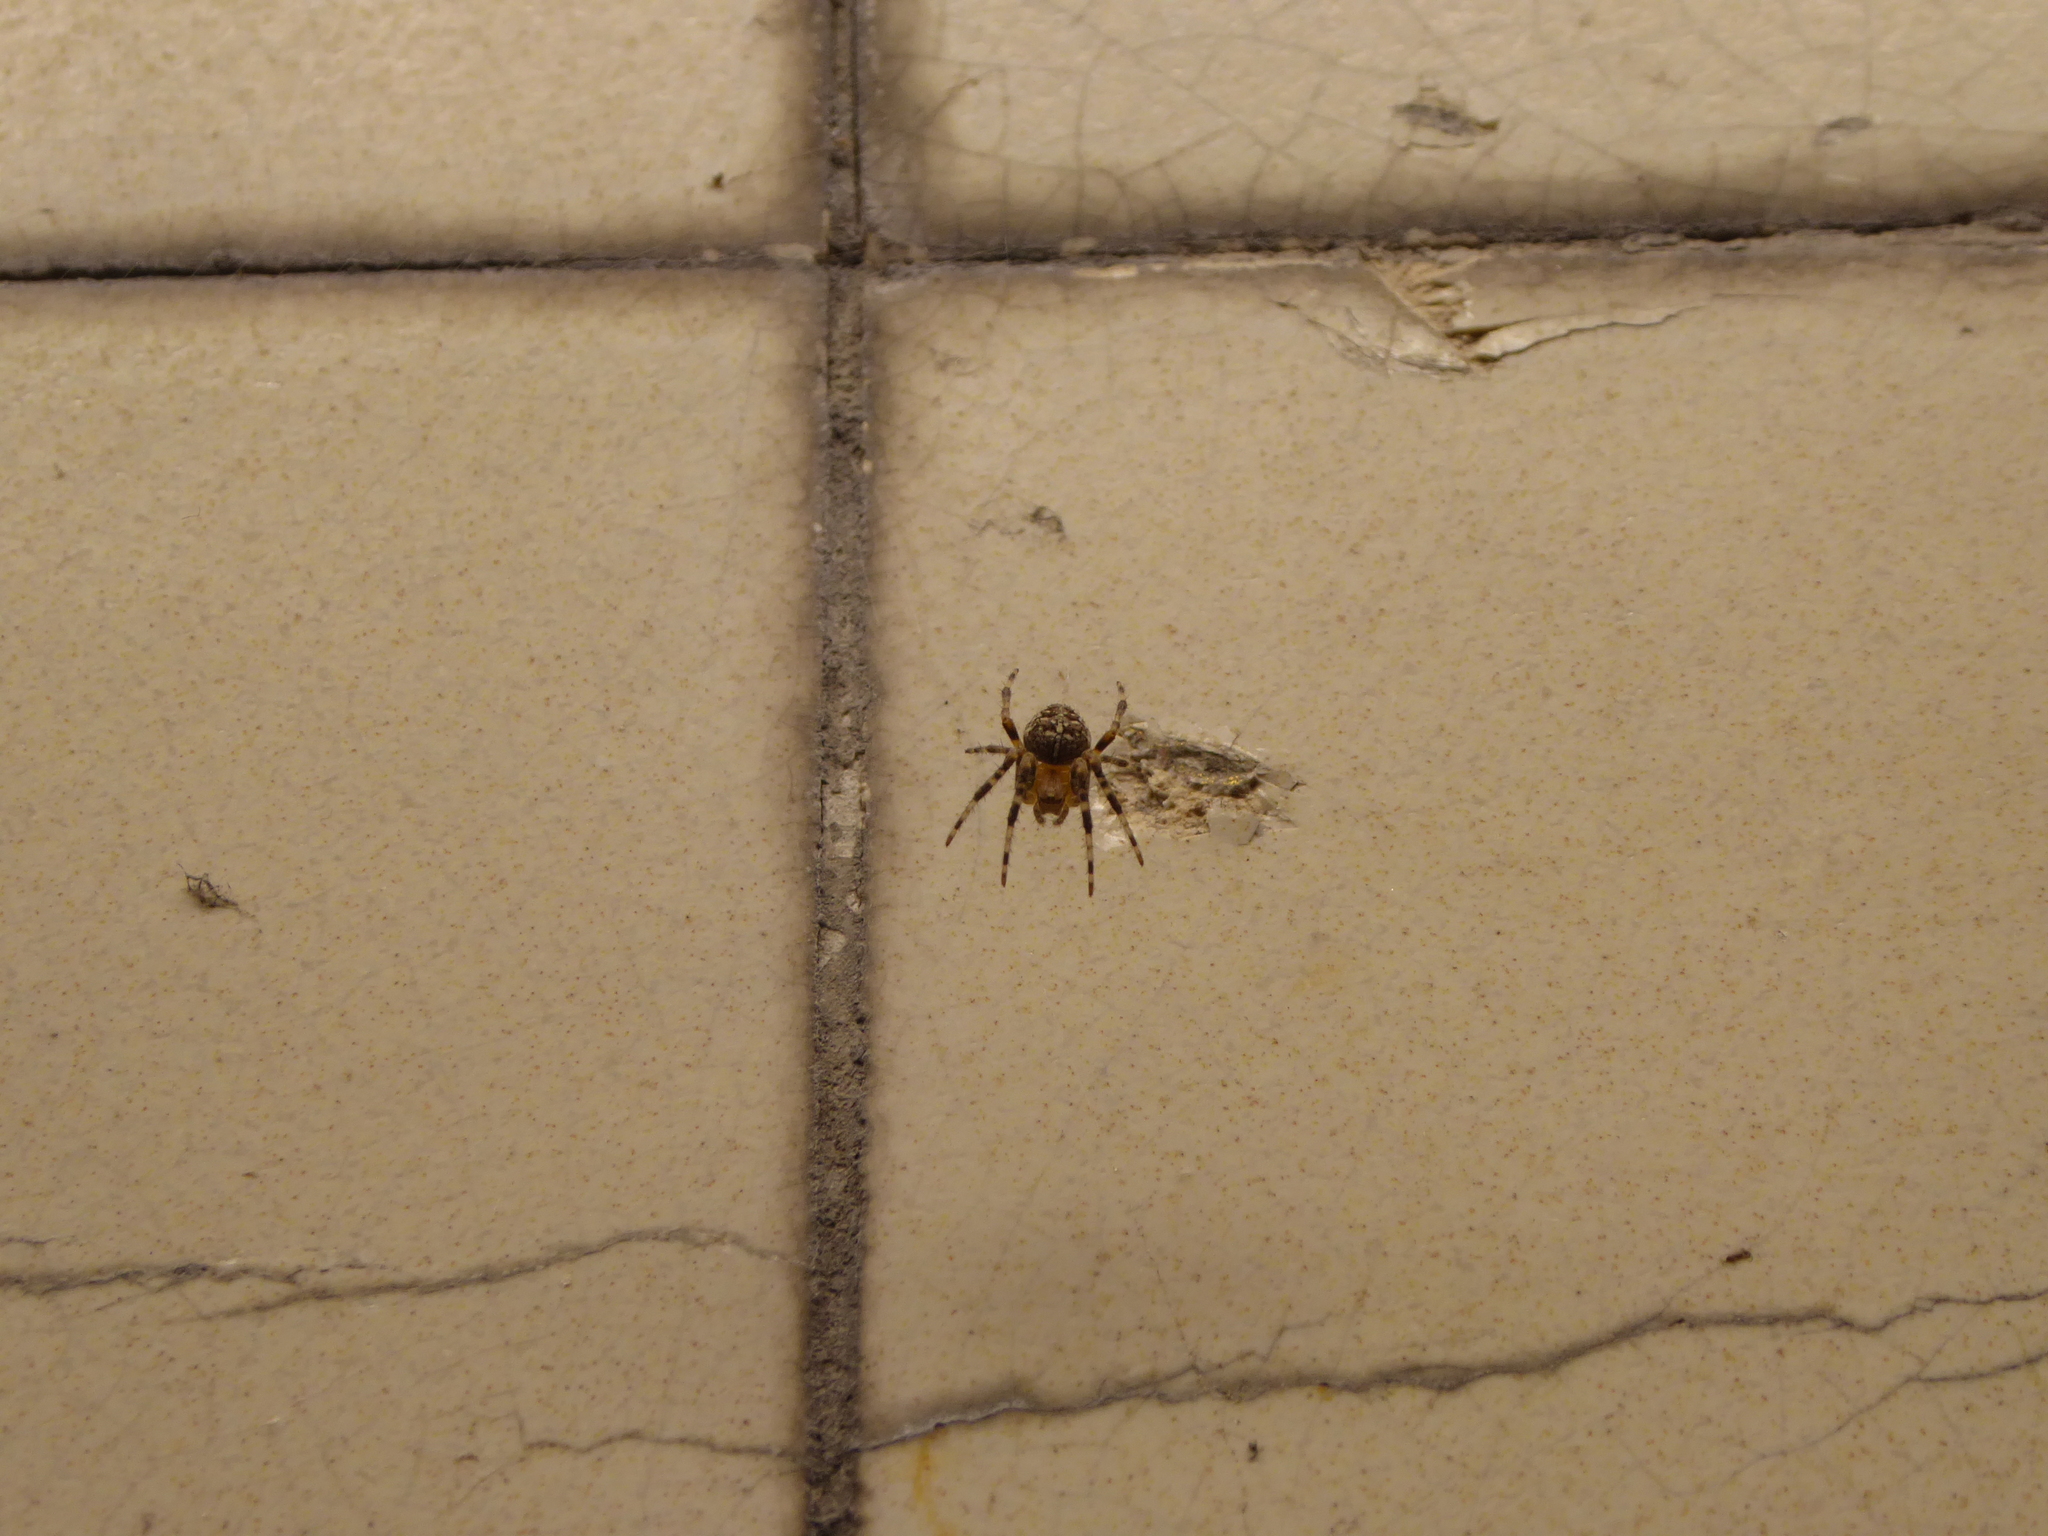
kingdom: Animalia
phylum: Arthropoda
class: Arachnida
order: Araneae
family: Araneidae
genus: Araneus
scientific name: Araneus diadematus
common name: Cross orbweaver
